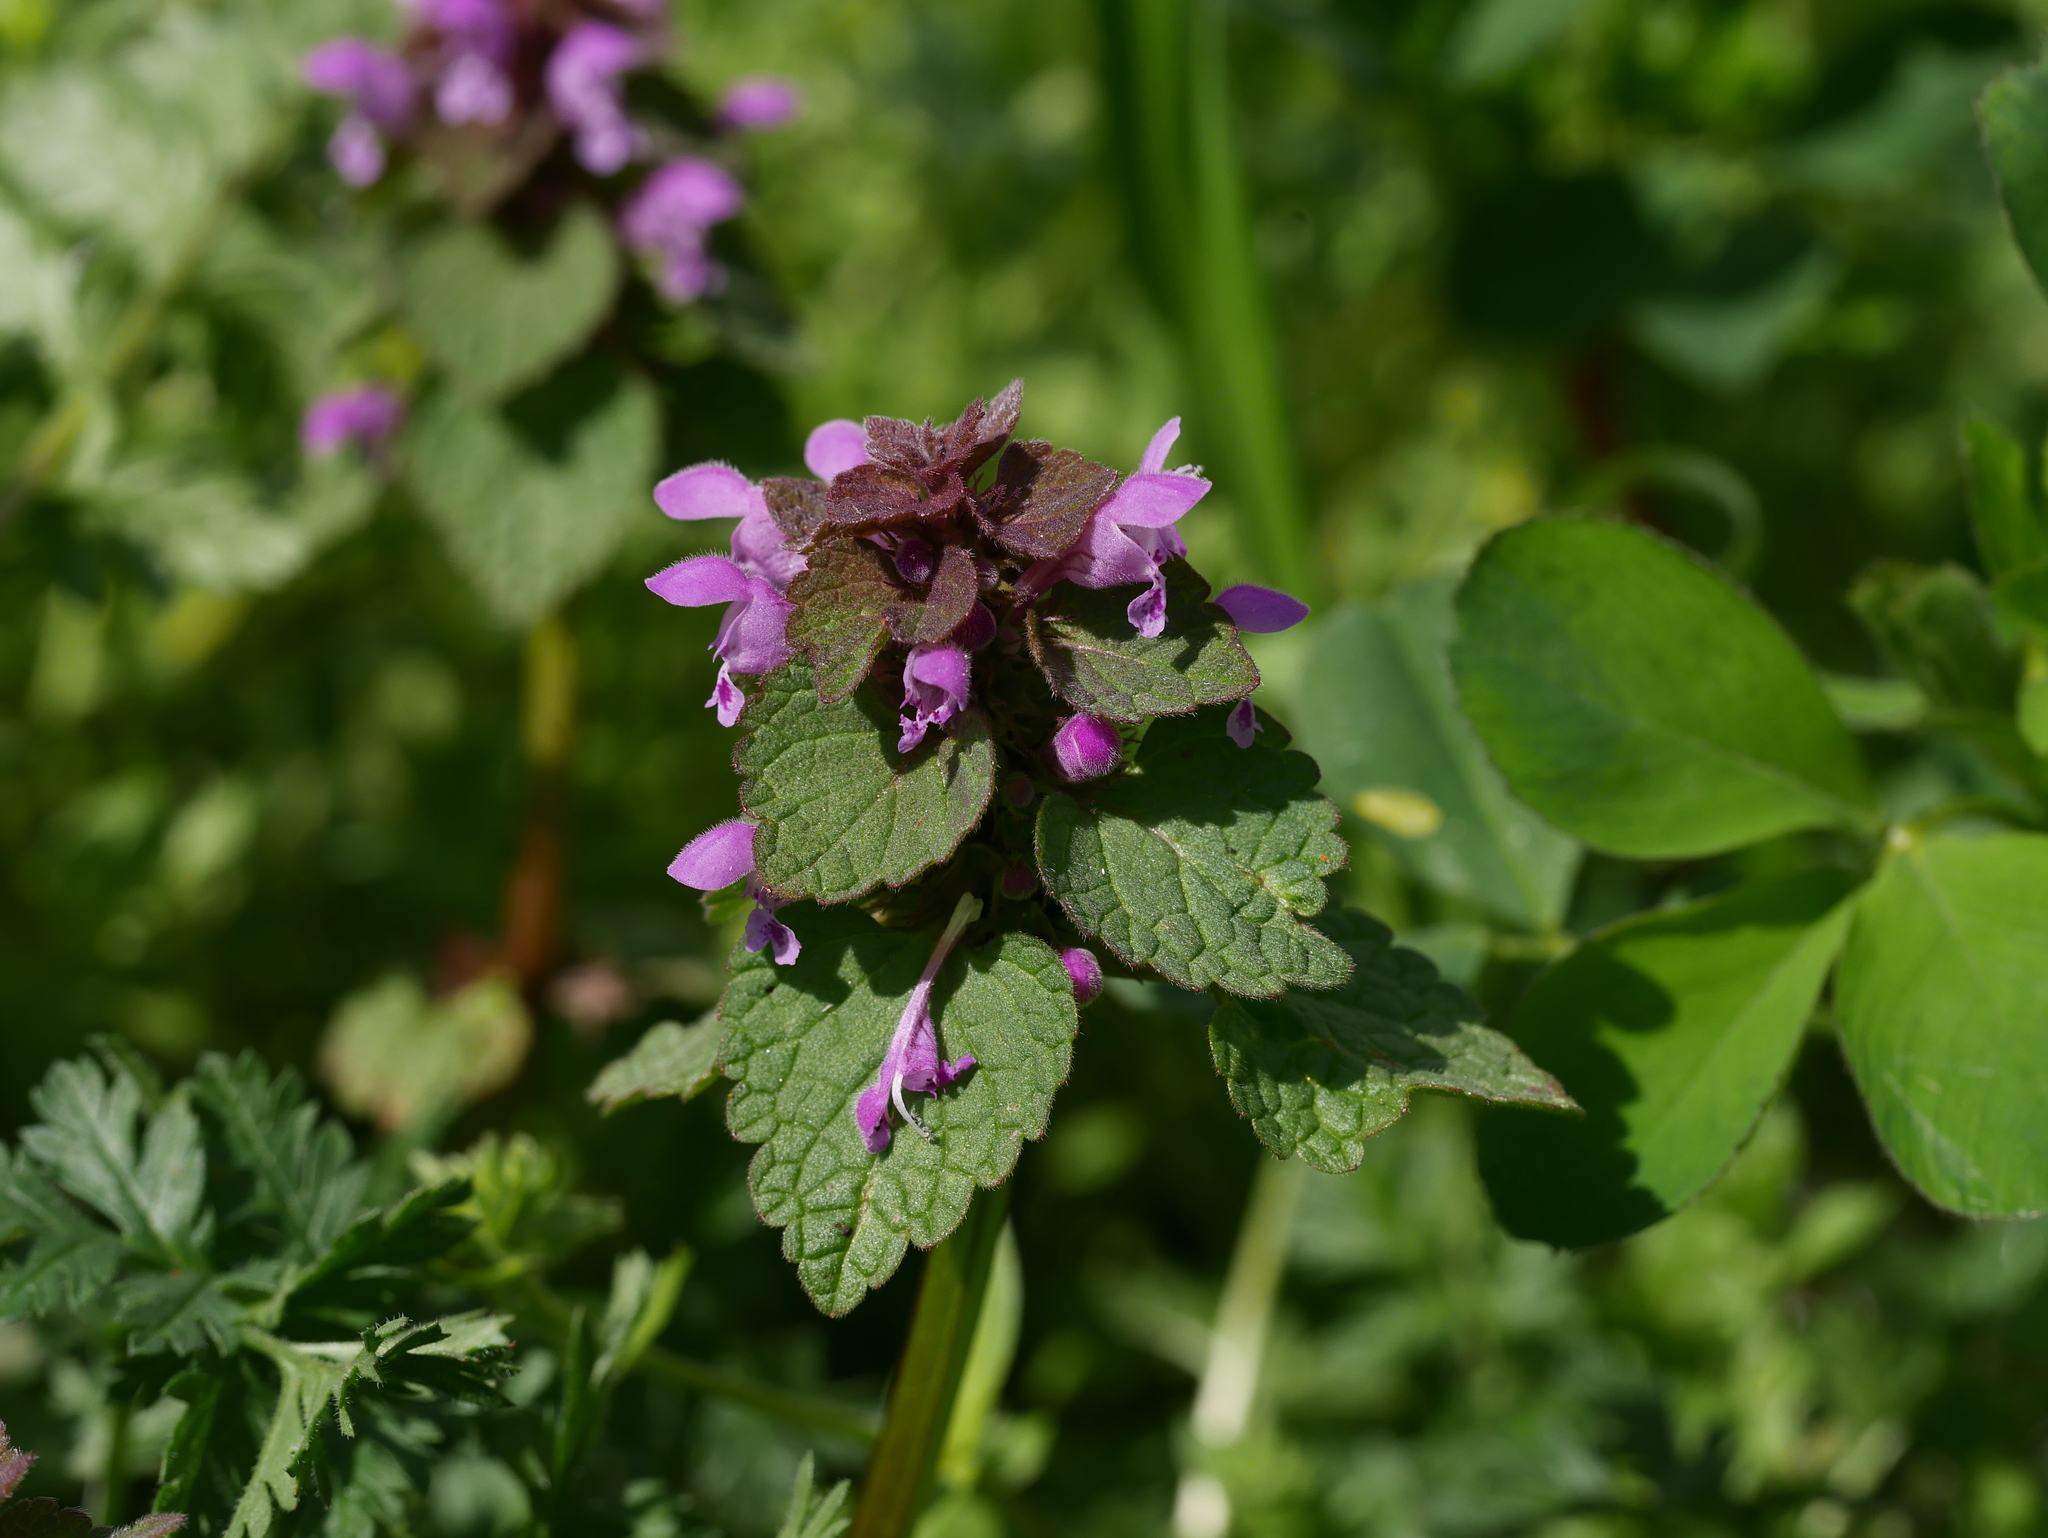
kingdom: Plantae
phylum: Tracheophyta
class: Magnoliopsida
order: Lamiales
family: Lamiaceae
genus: Lamium
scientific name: Lamium purpureum
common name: Red dead-nettle
